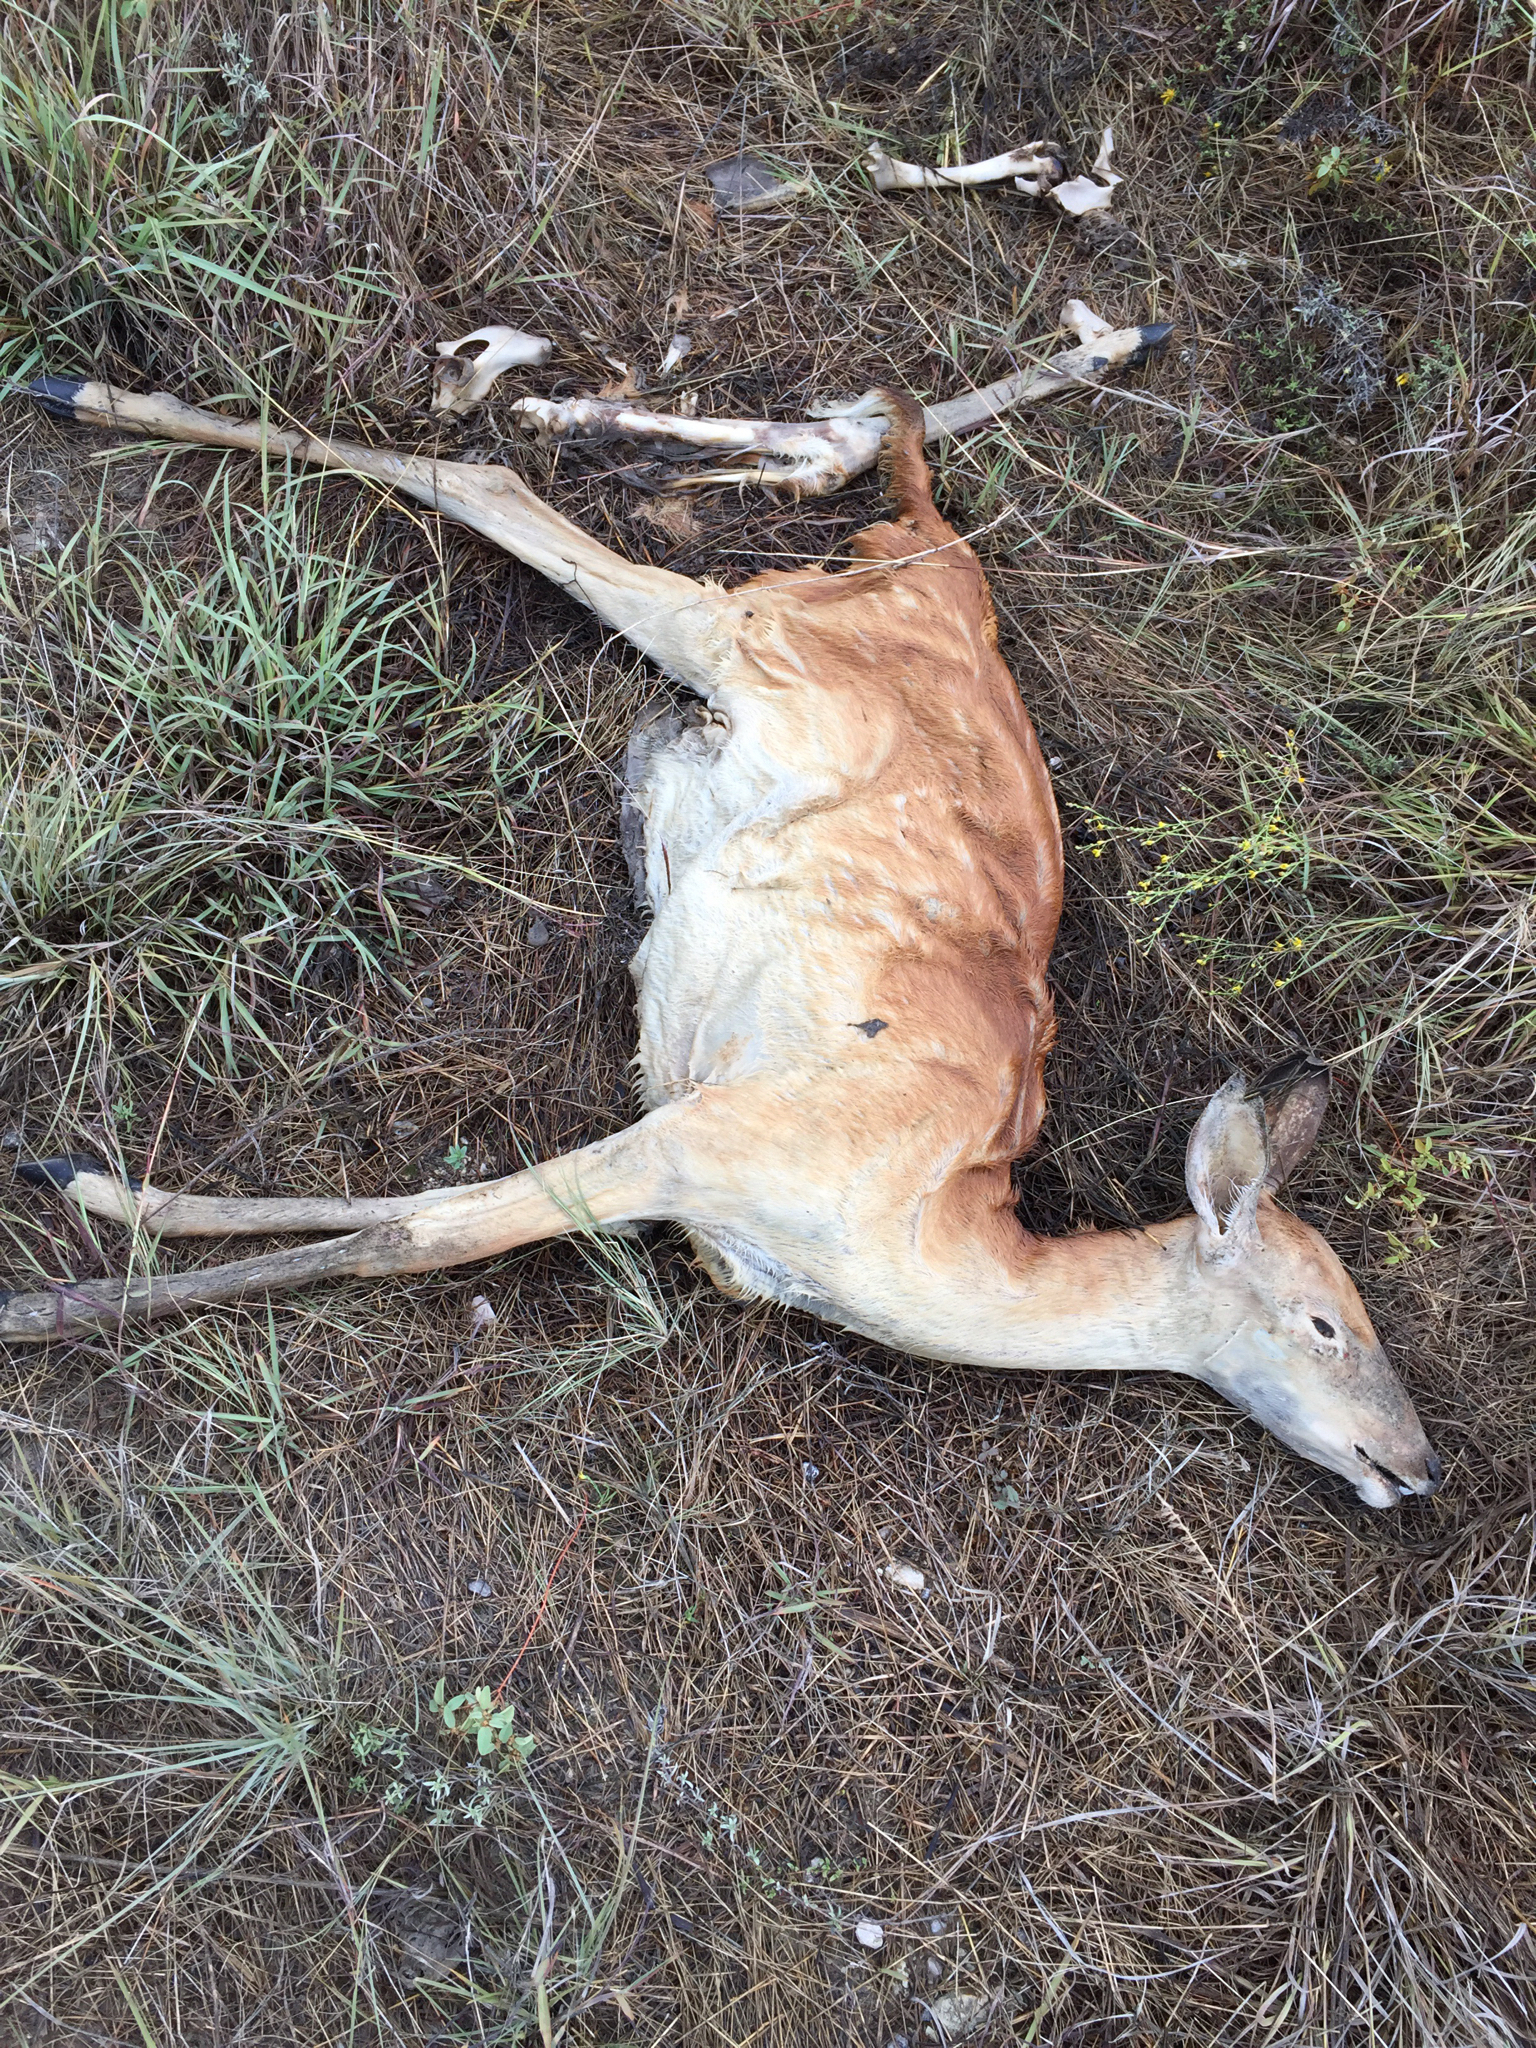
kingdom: Animalia
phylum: Chordata
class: Mammalia
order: Artiodactyla
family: Cervidae
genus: Odocoileus
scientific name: Odocoileus virginianus
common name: White-tailed deer
